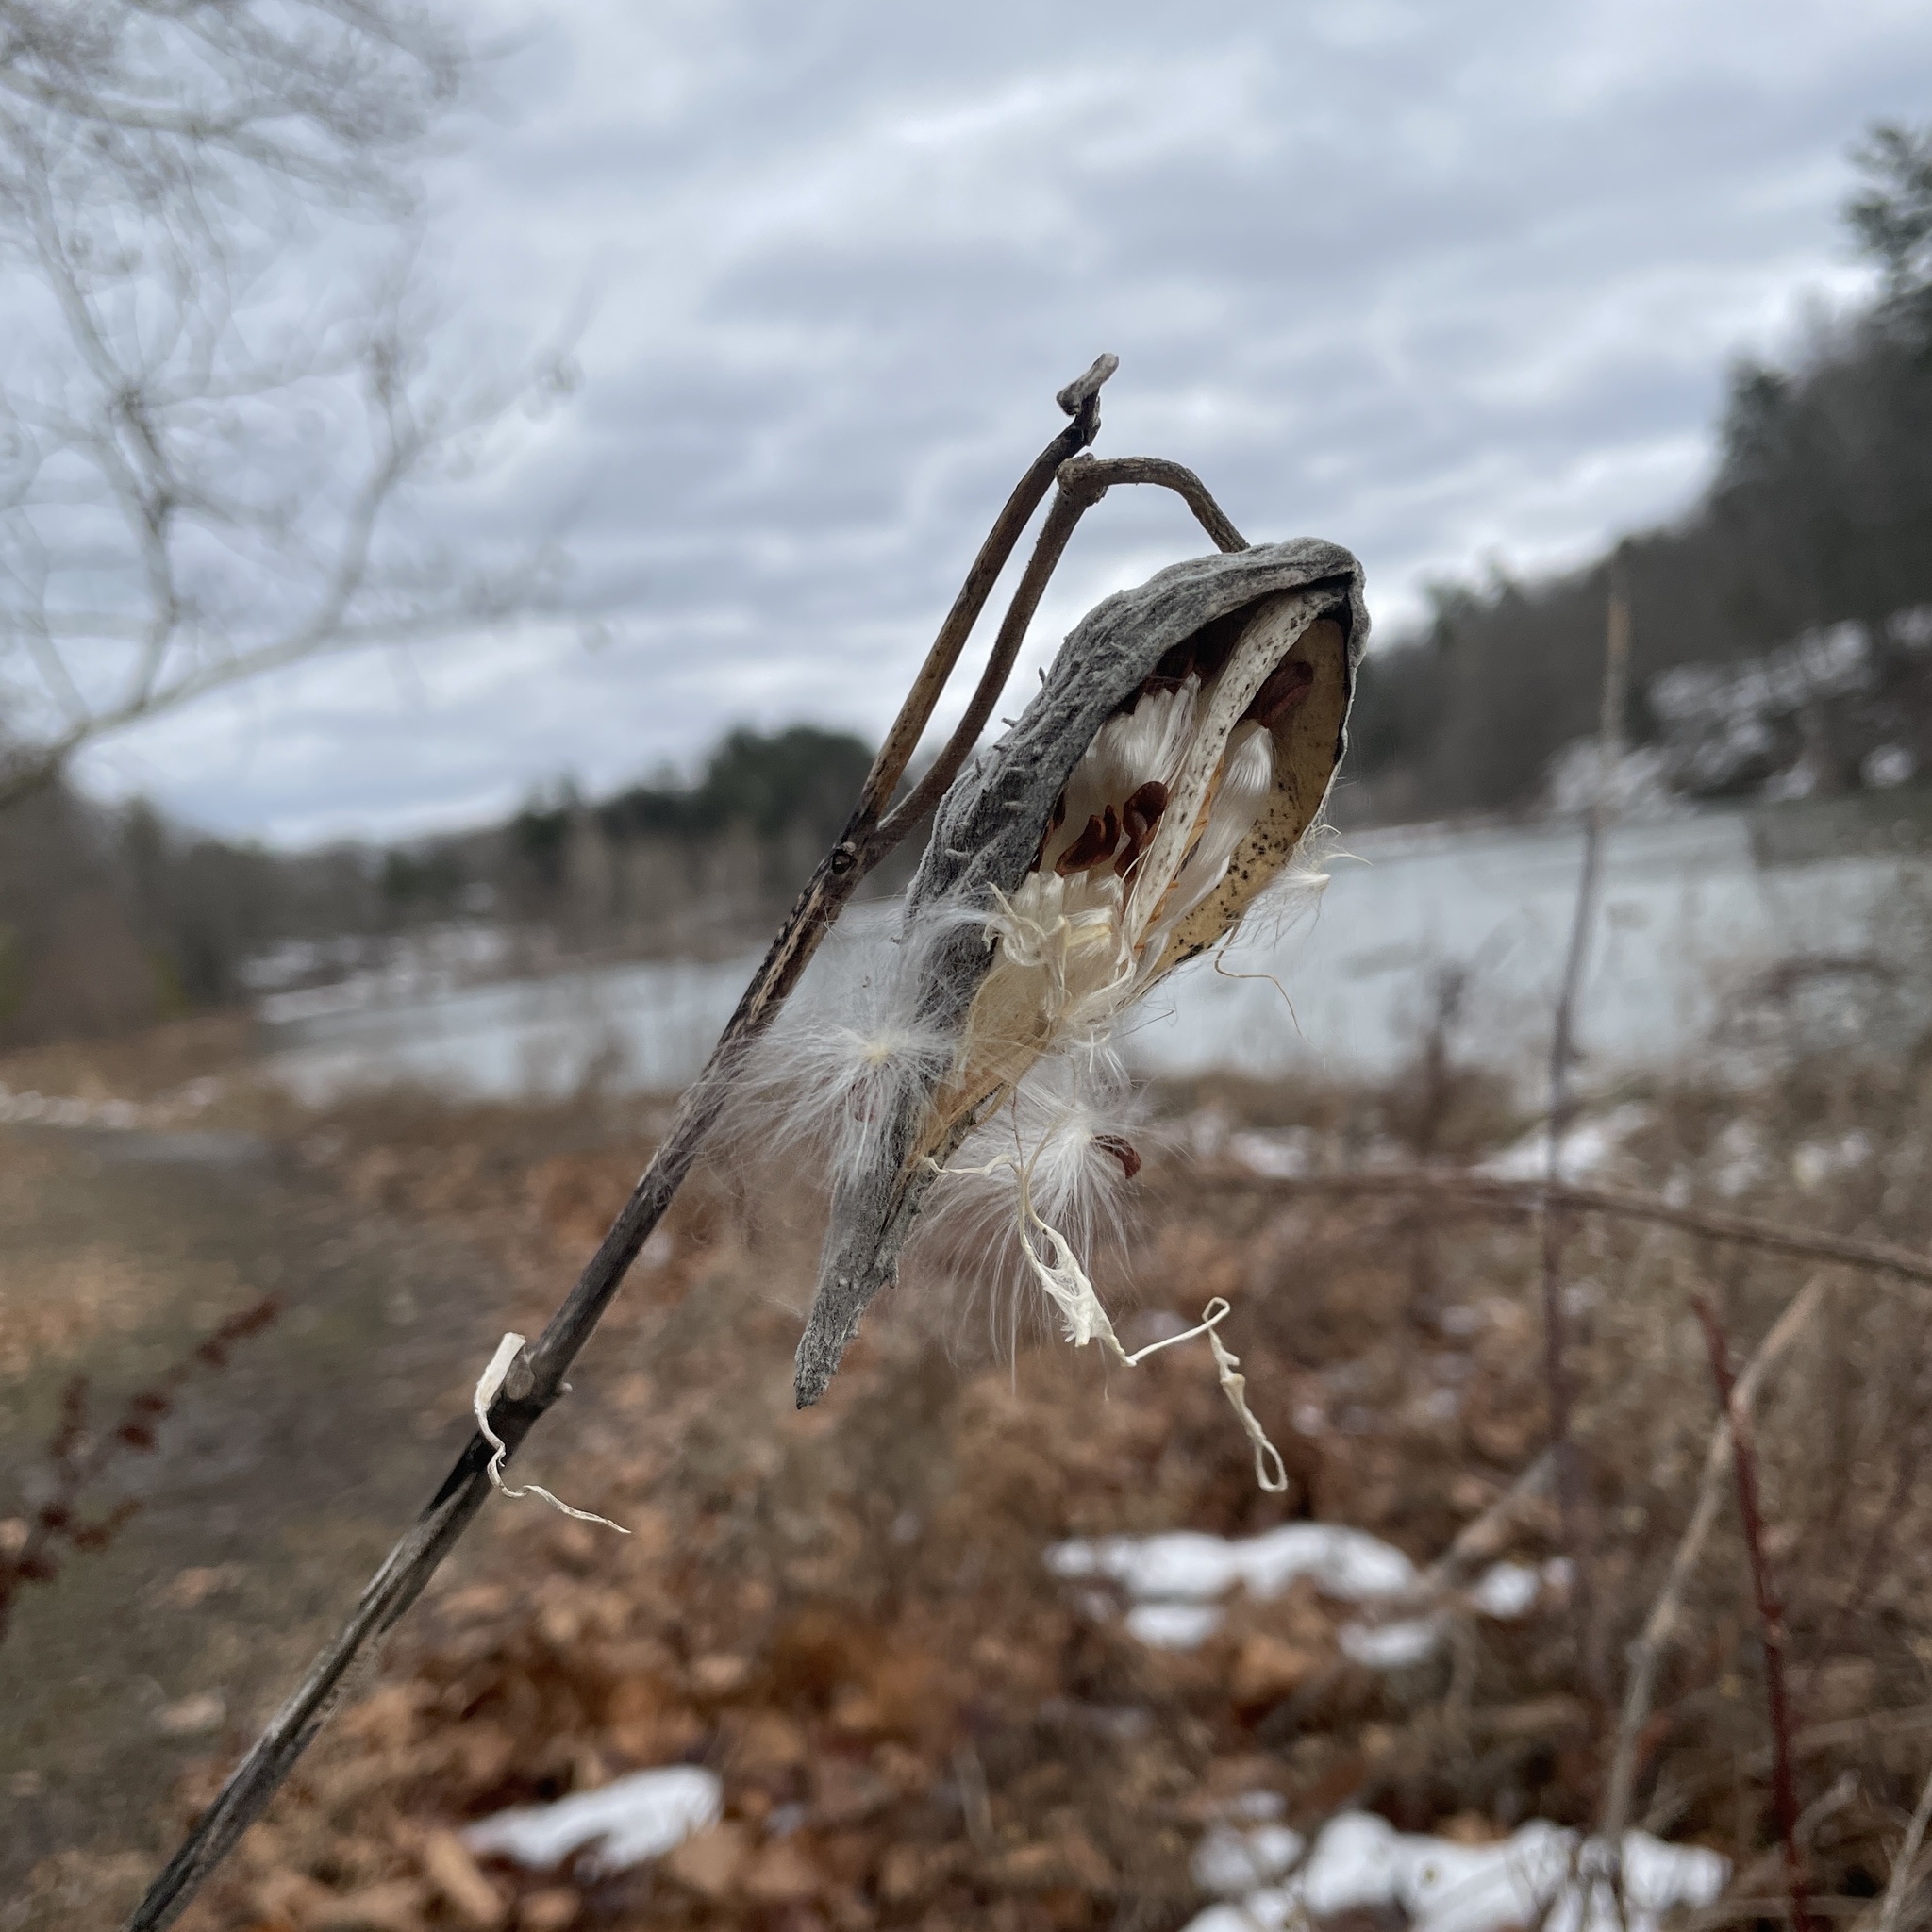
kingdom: Plantae
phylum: Tracheophyta
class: Magnoliopsida
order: Gentianales
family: Apocynaceae
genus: Asclepias
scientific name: Asclepias syriaca
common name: Common milkweed
